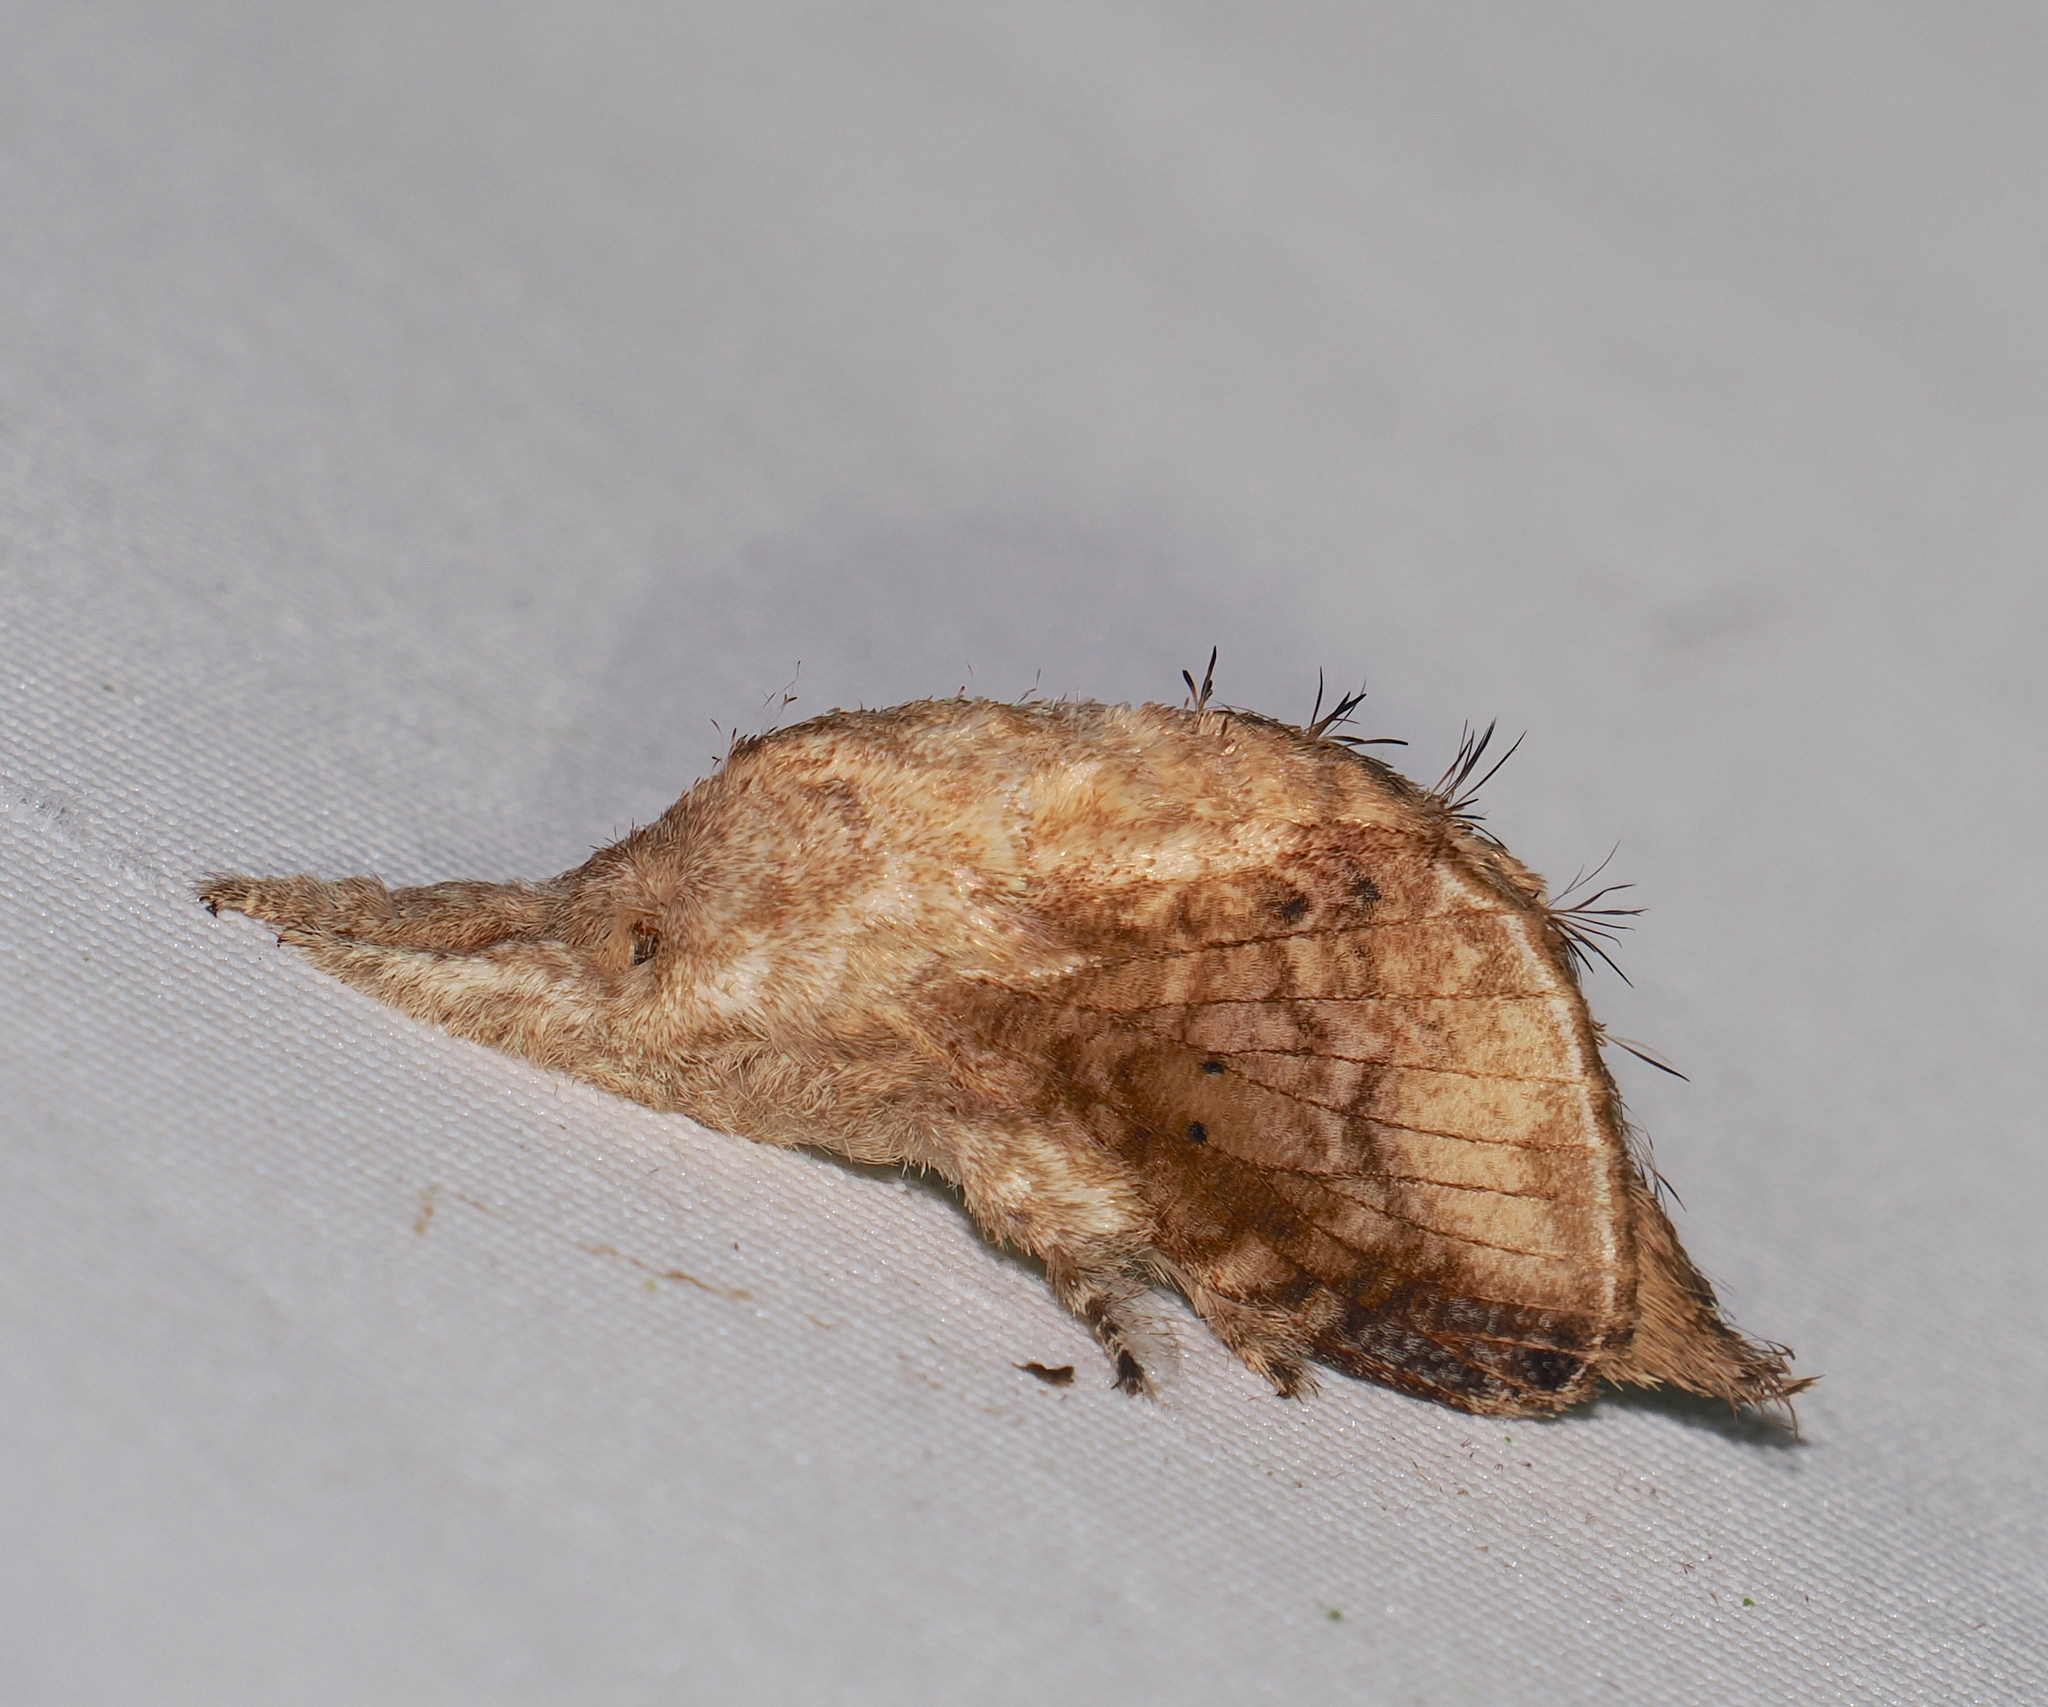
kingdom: Animalia
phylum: Arthropoda
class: Insecta
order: Lepidoptera
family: Lasiocampidae
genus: Tolype
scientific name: Tolype perplexa
